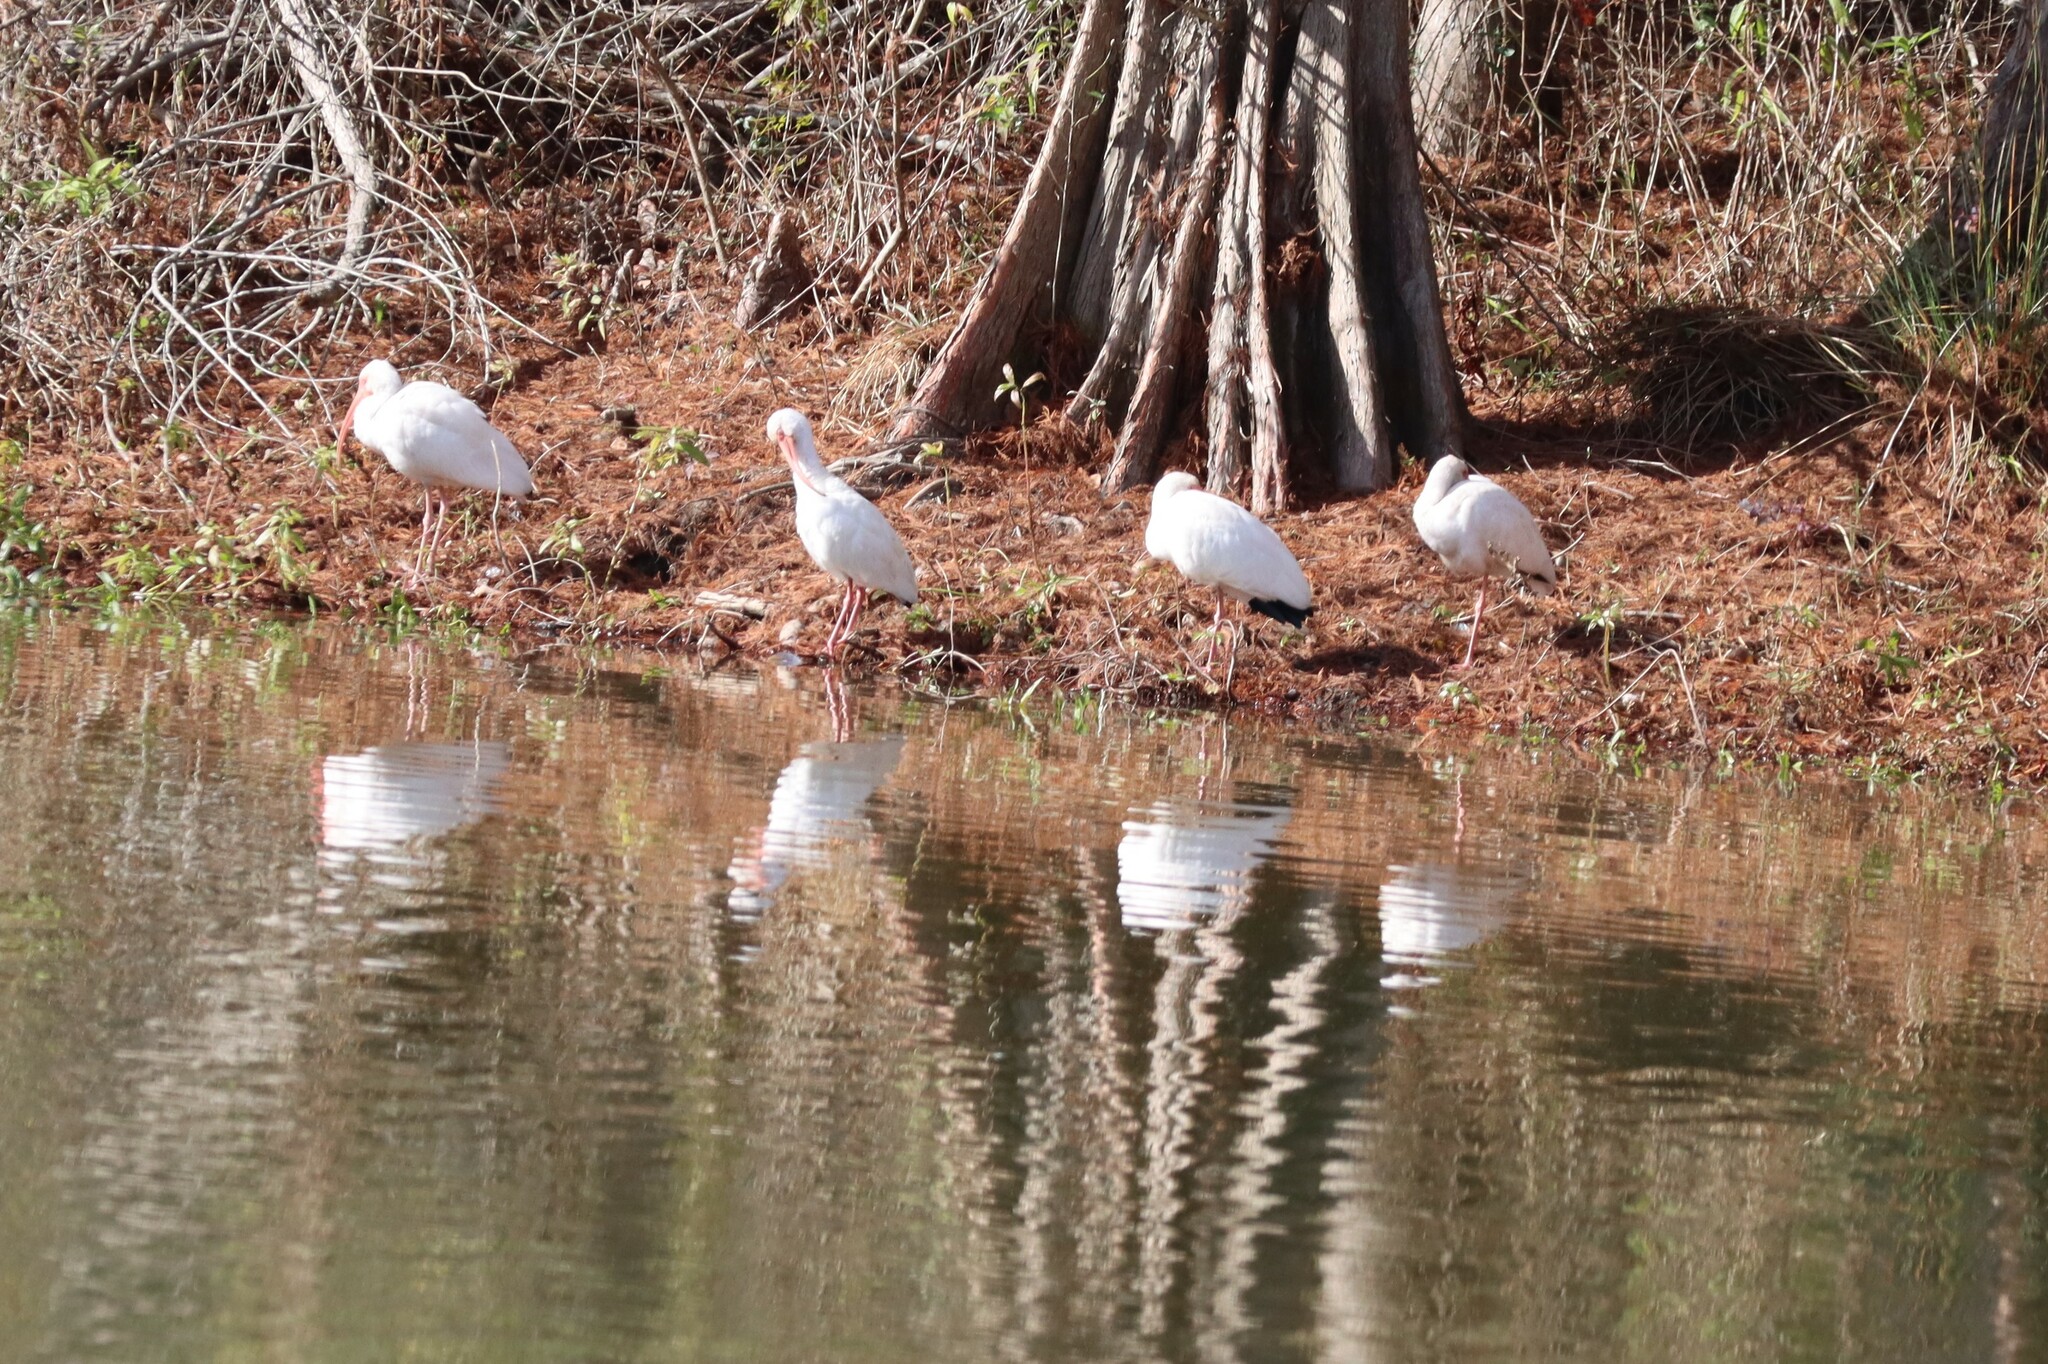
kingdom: Animalia
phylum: Chordata
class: Aves
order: Pelecaniformes
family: Threskiornithidae
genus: Eudocimus
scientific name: Eudocimus albus
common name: White ibis
